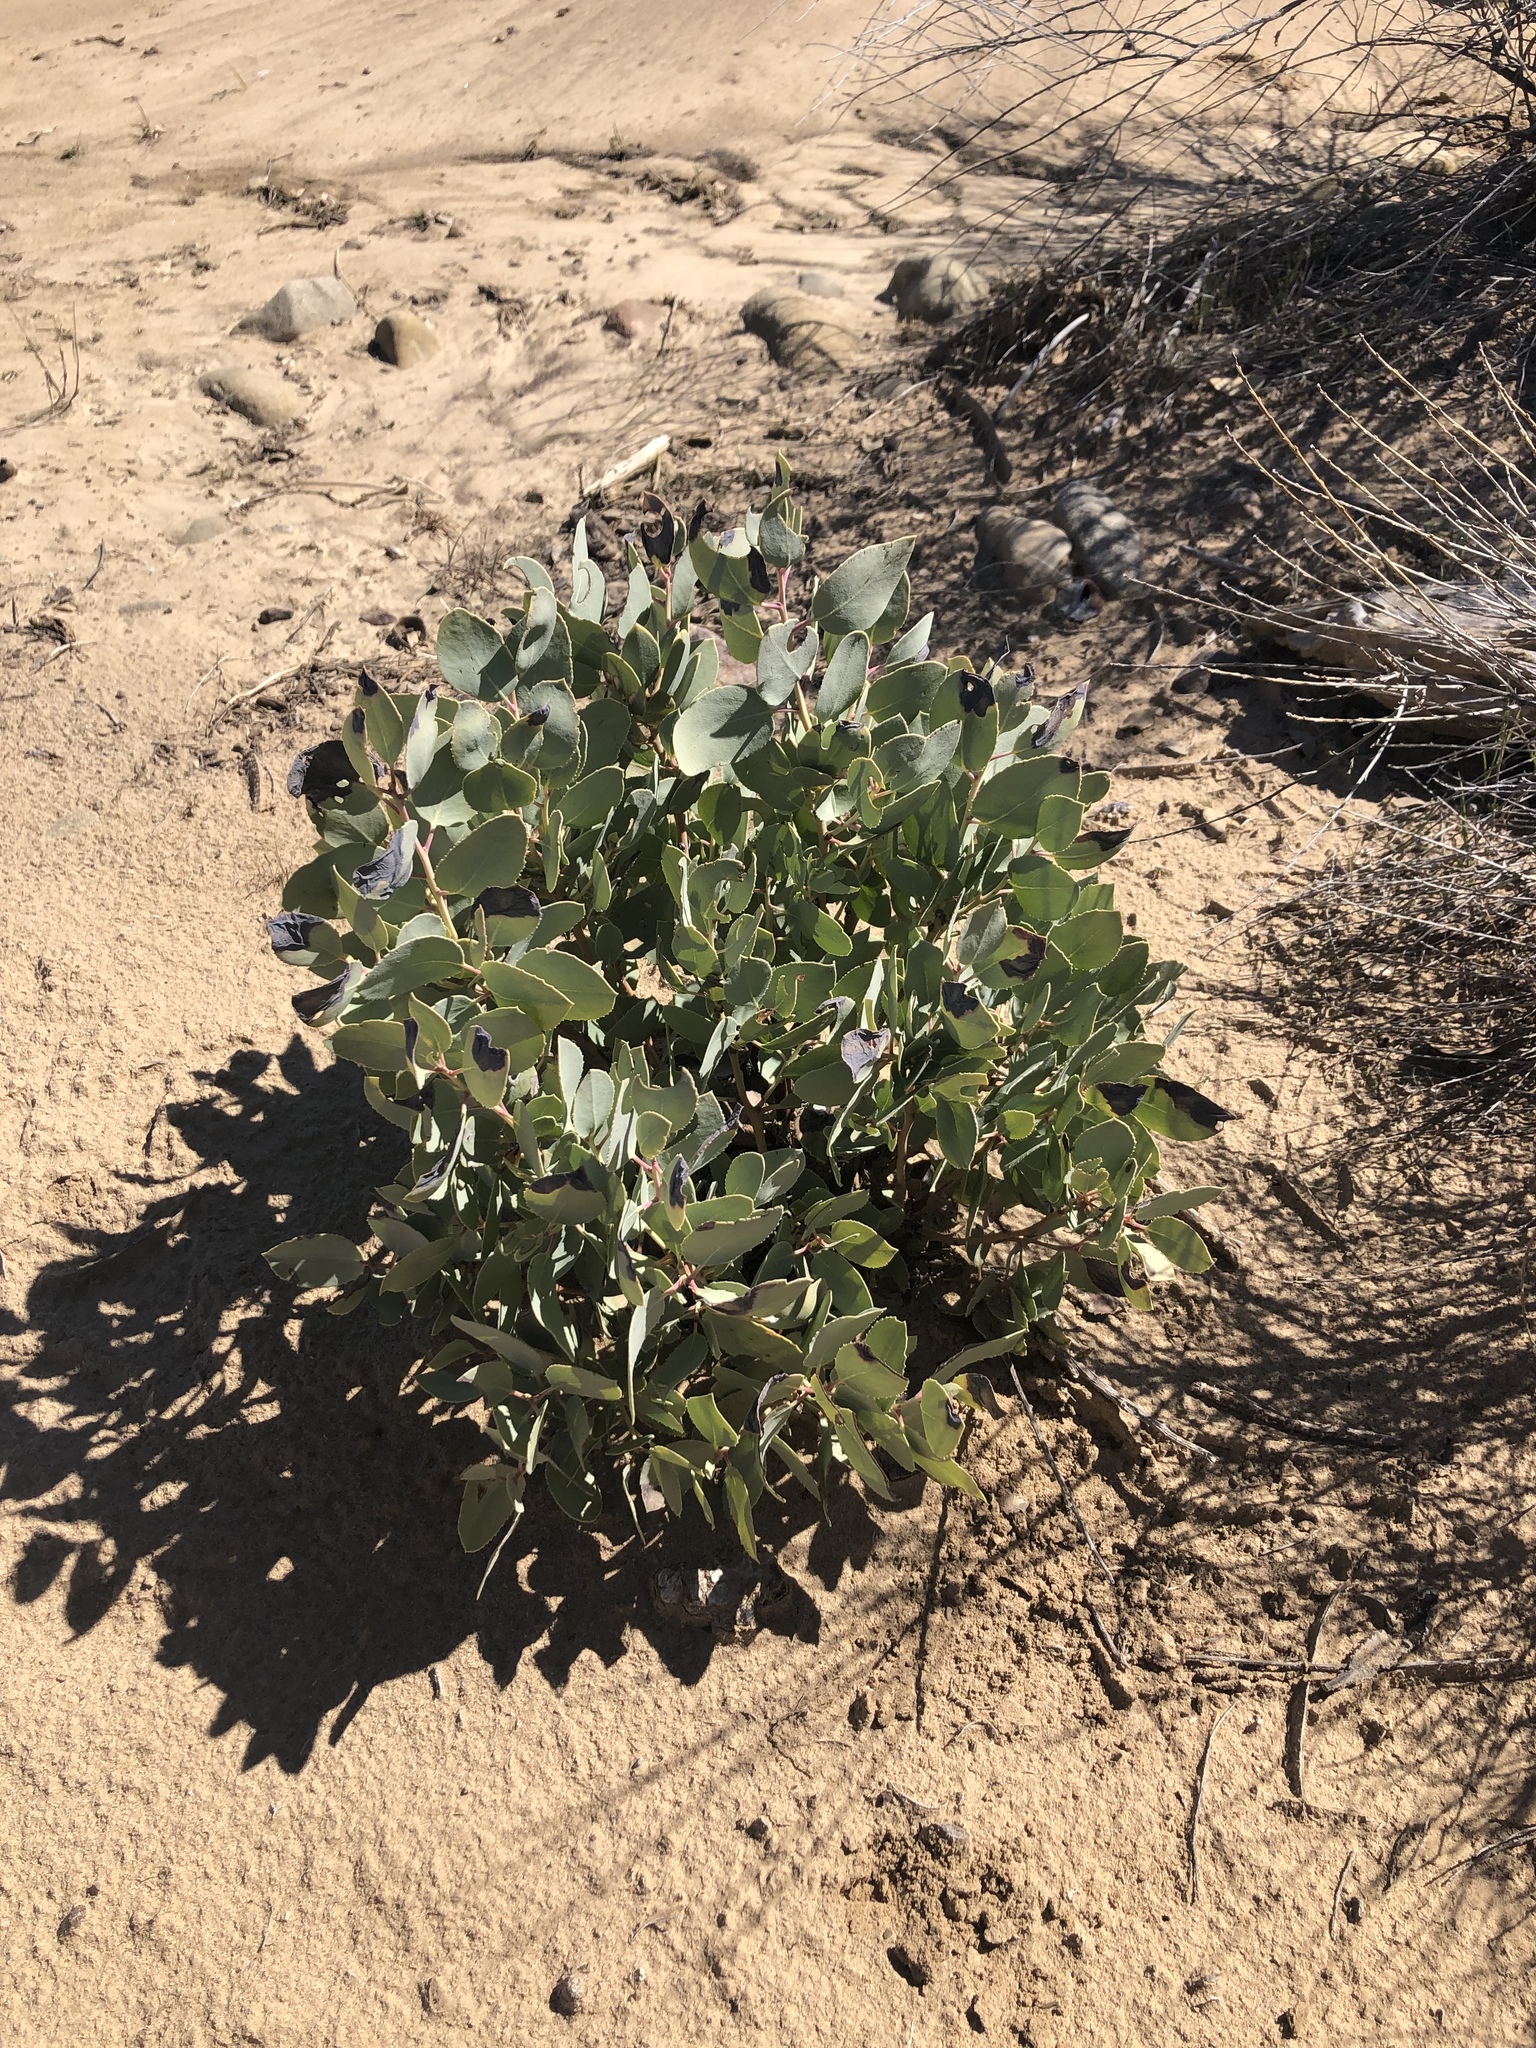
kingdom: Plantae
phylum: Tracheophyta
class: Magnoliopsida
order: Ericales
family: Ericaceae
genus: Arctostaphylos
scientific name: Arctostaphylos glauca
